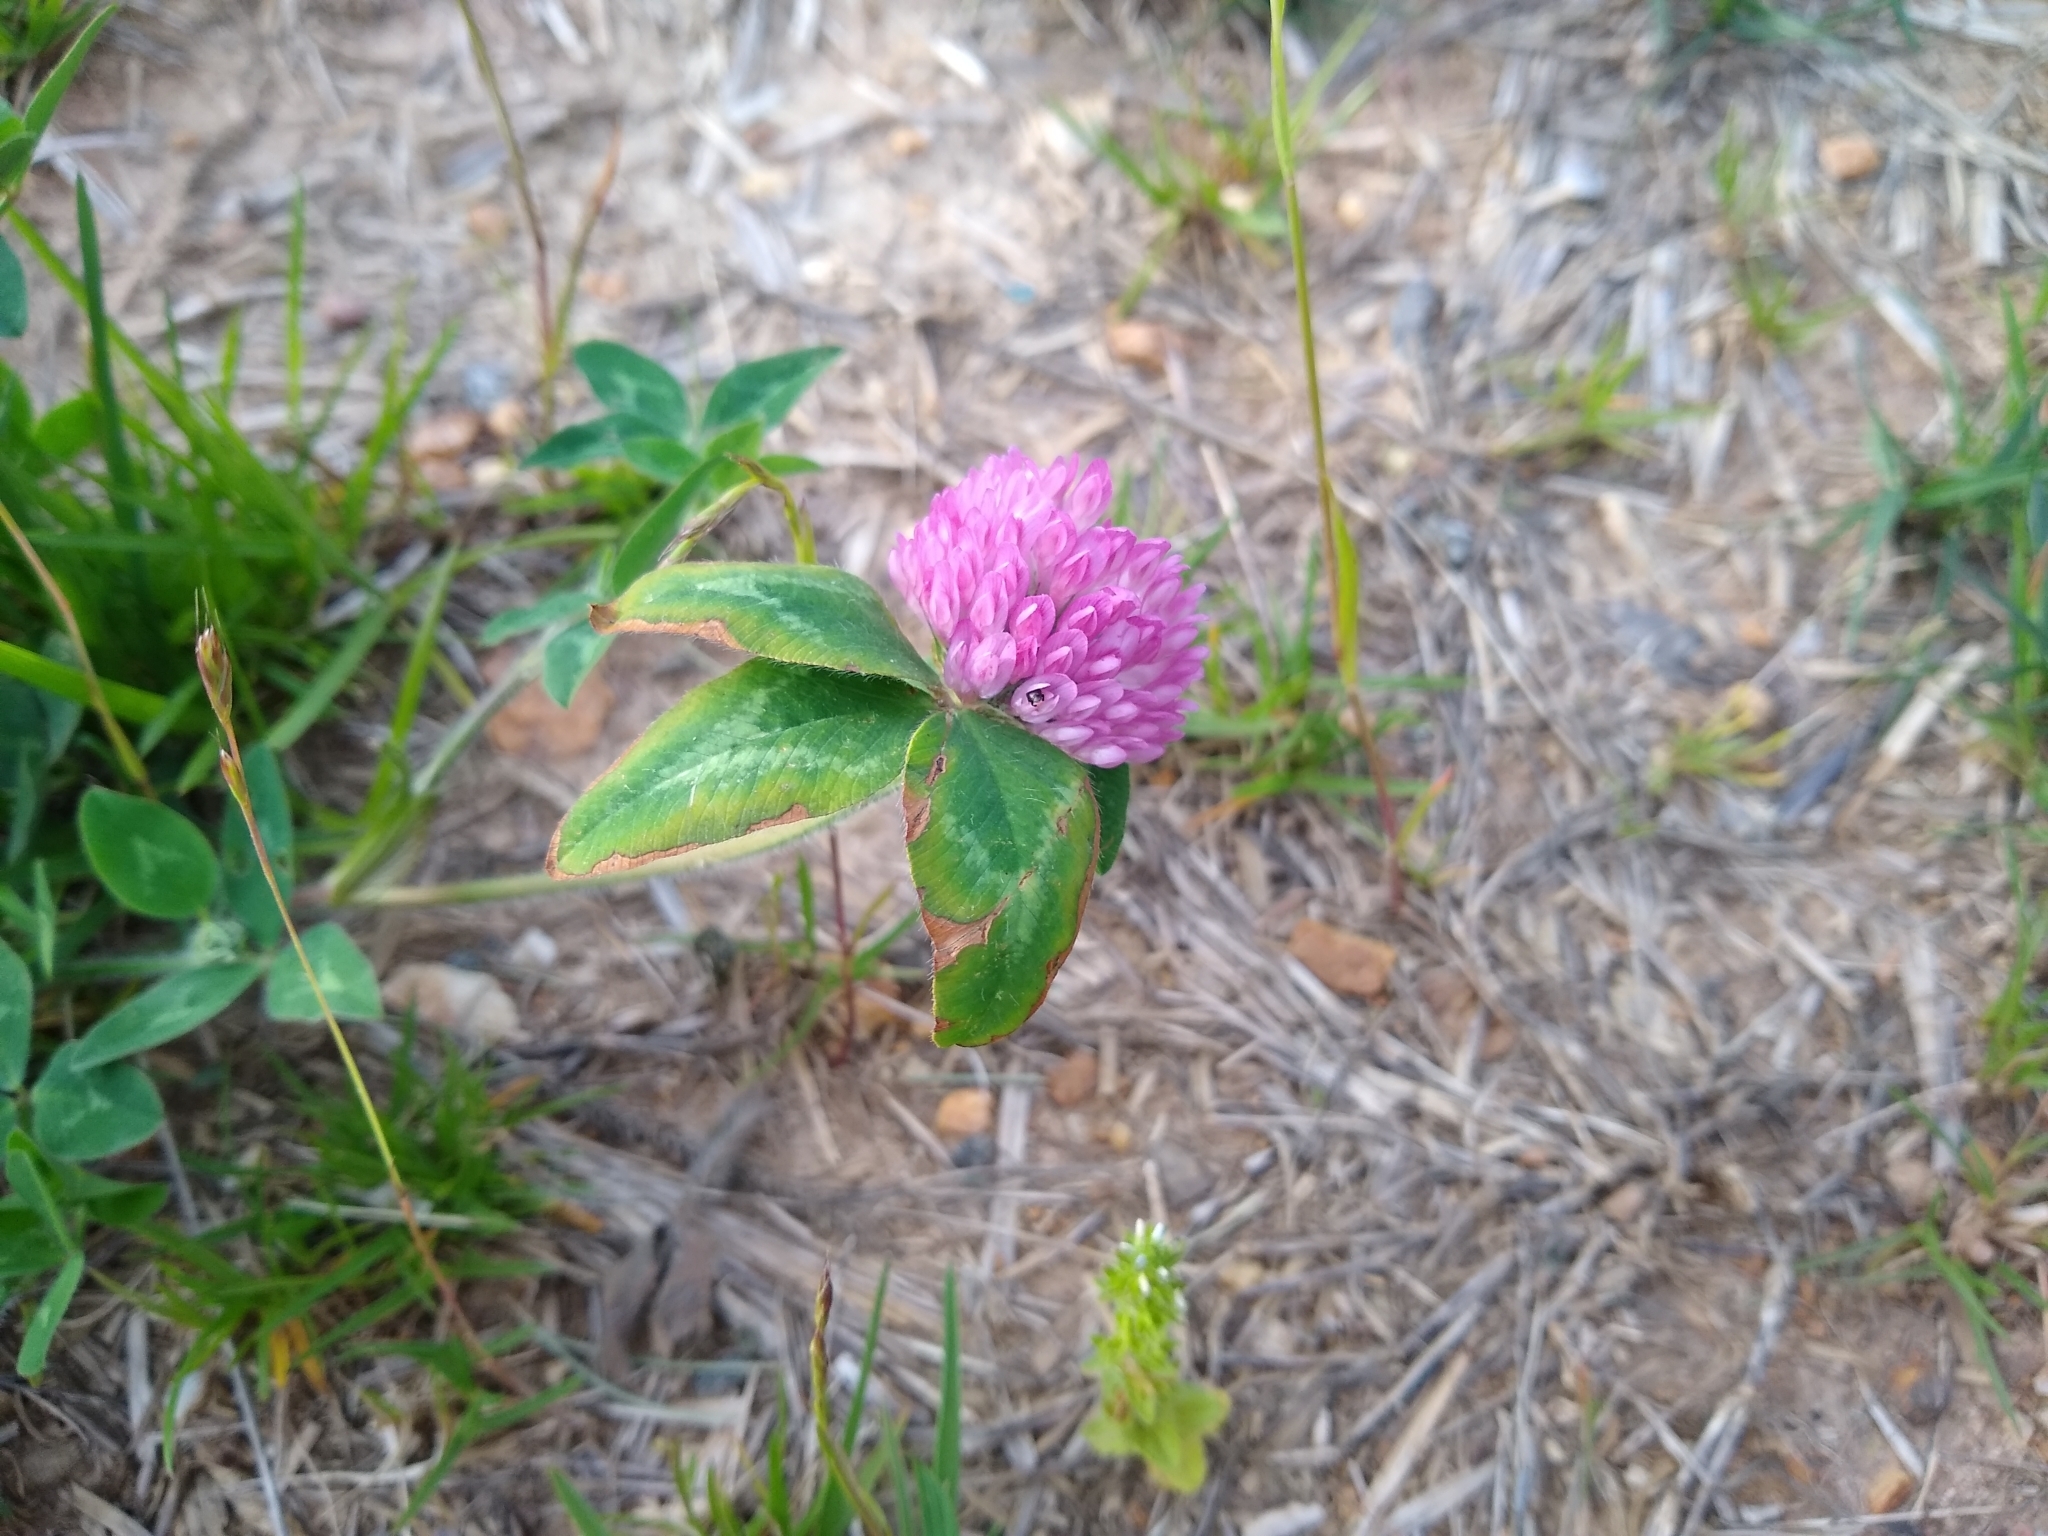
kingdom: Plantae
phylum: Tracheophyta
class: Magnoliopsida
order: Fabales
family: Fabaceae
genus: Trifolium
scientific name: Trifolium pratense
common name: Red clover
